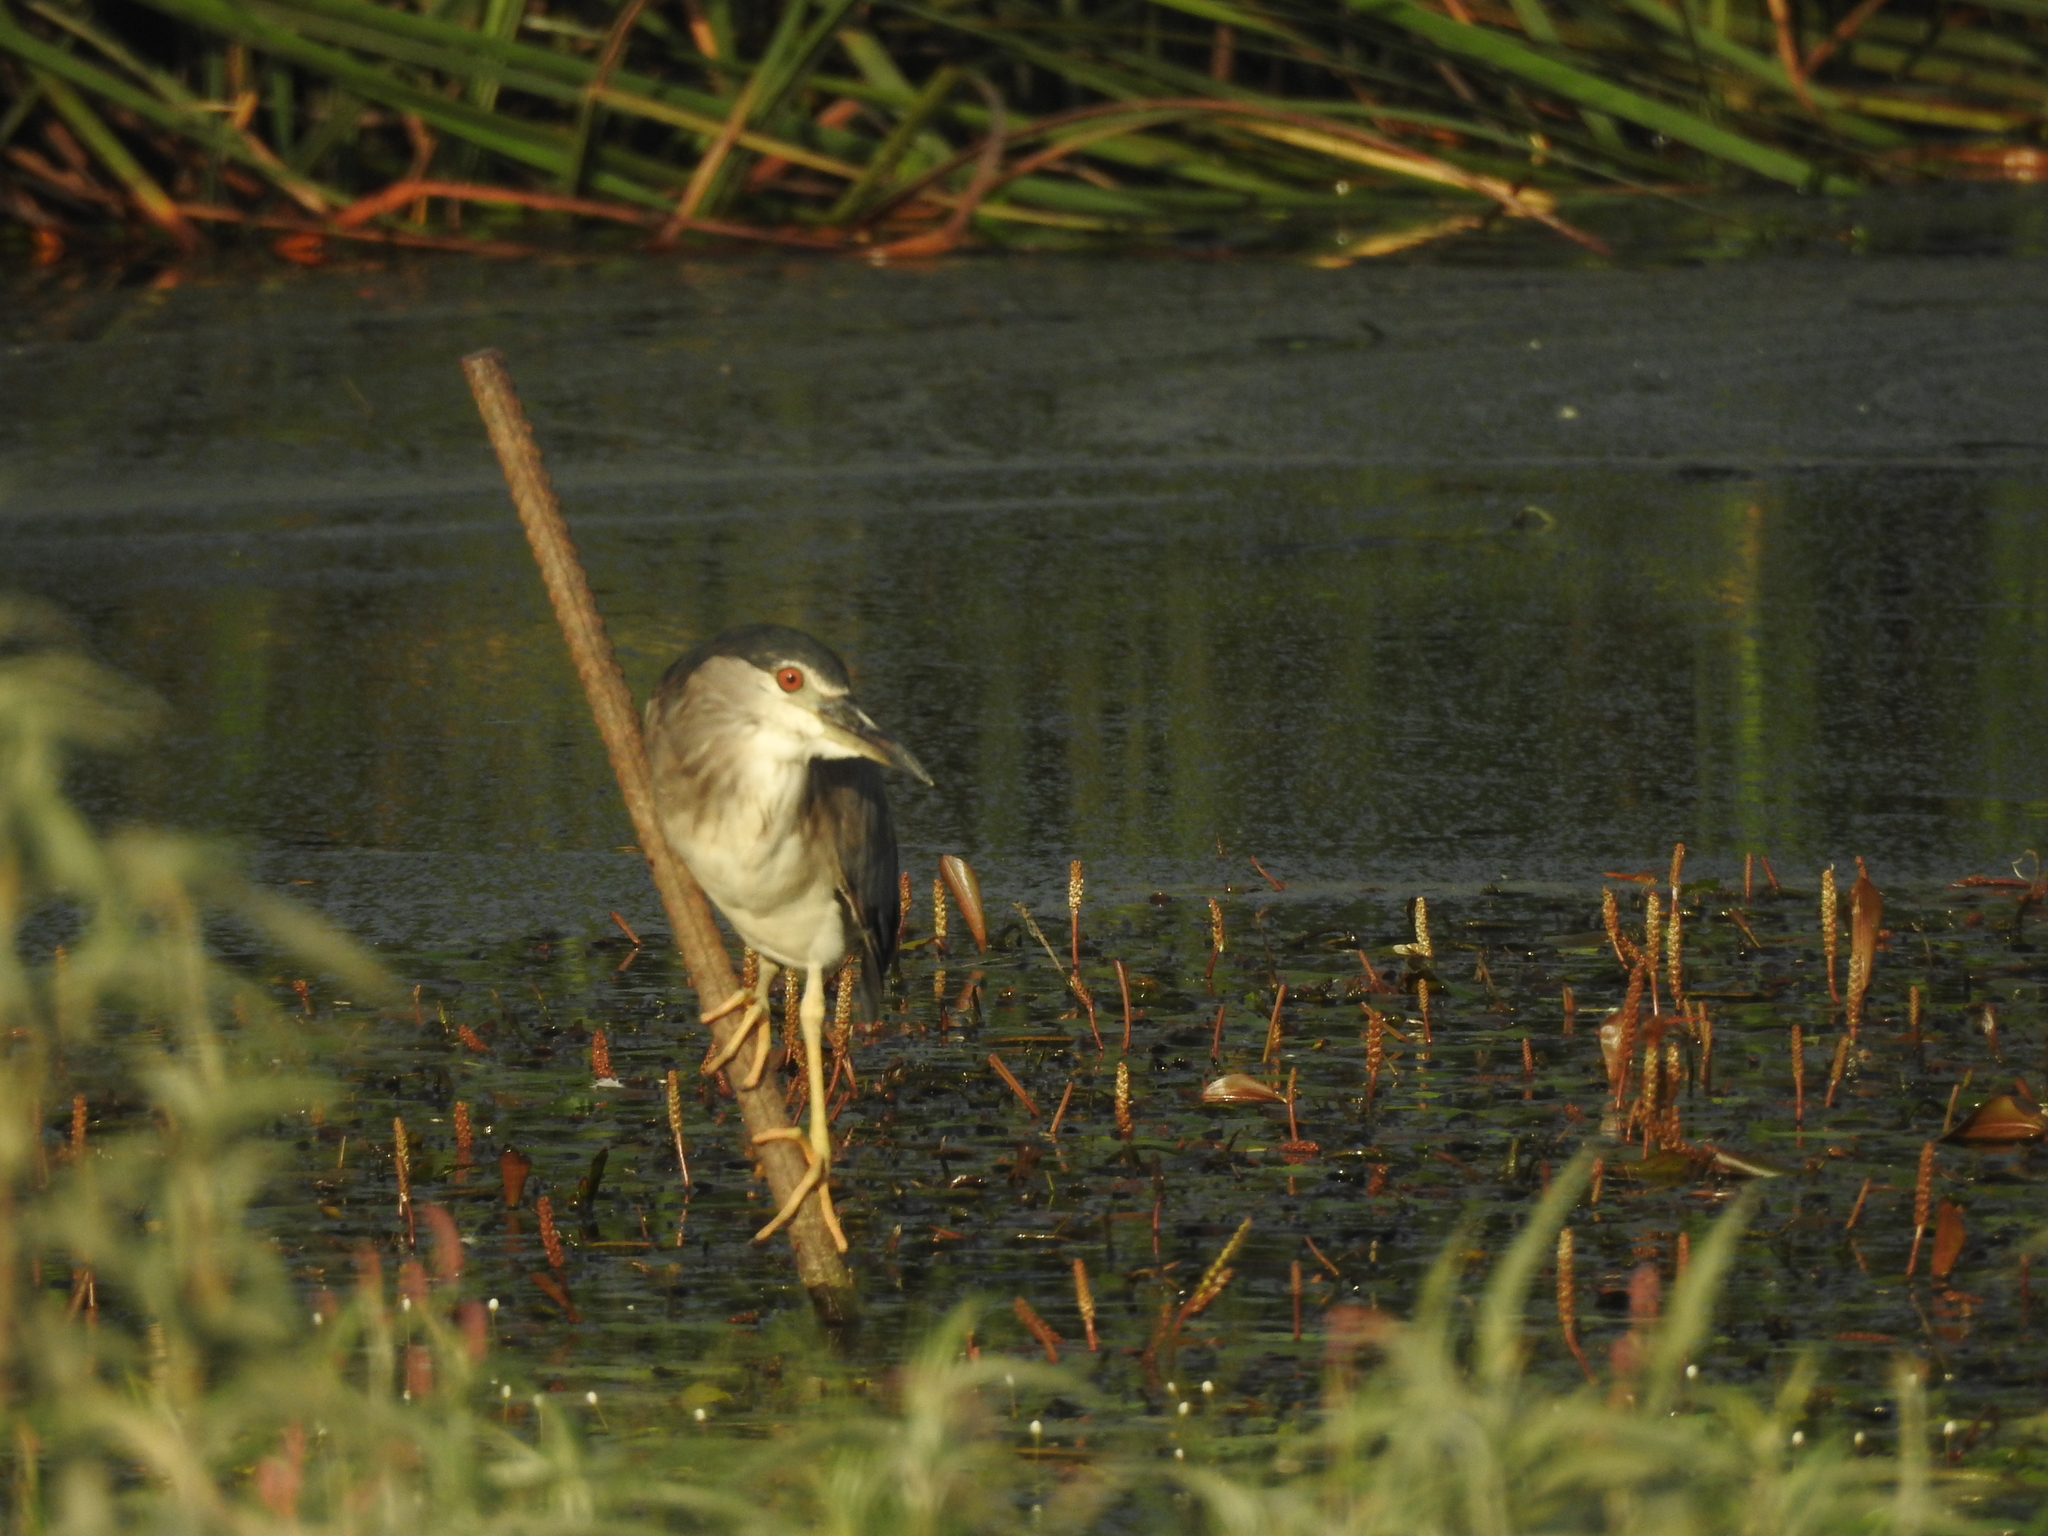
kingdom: Animalia
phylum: Chordata
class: Aves
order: Pelecaniformes
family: Ardeidae
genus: Nycticorax
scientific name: Nycticorax nycticorax
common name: Black-crowned night heron
